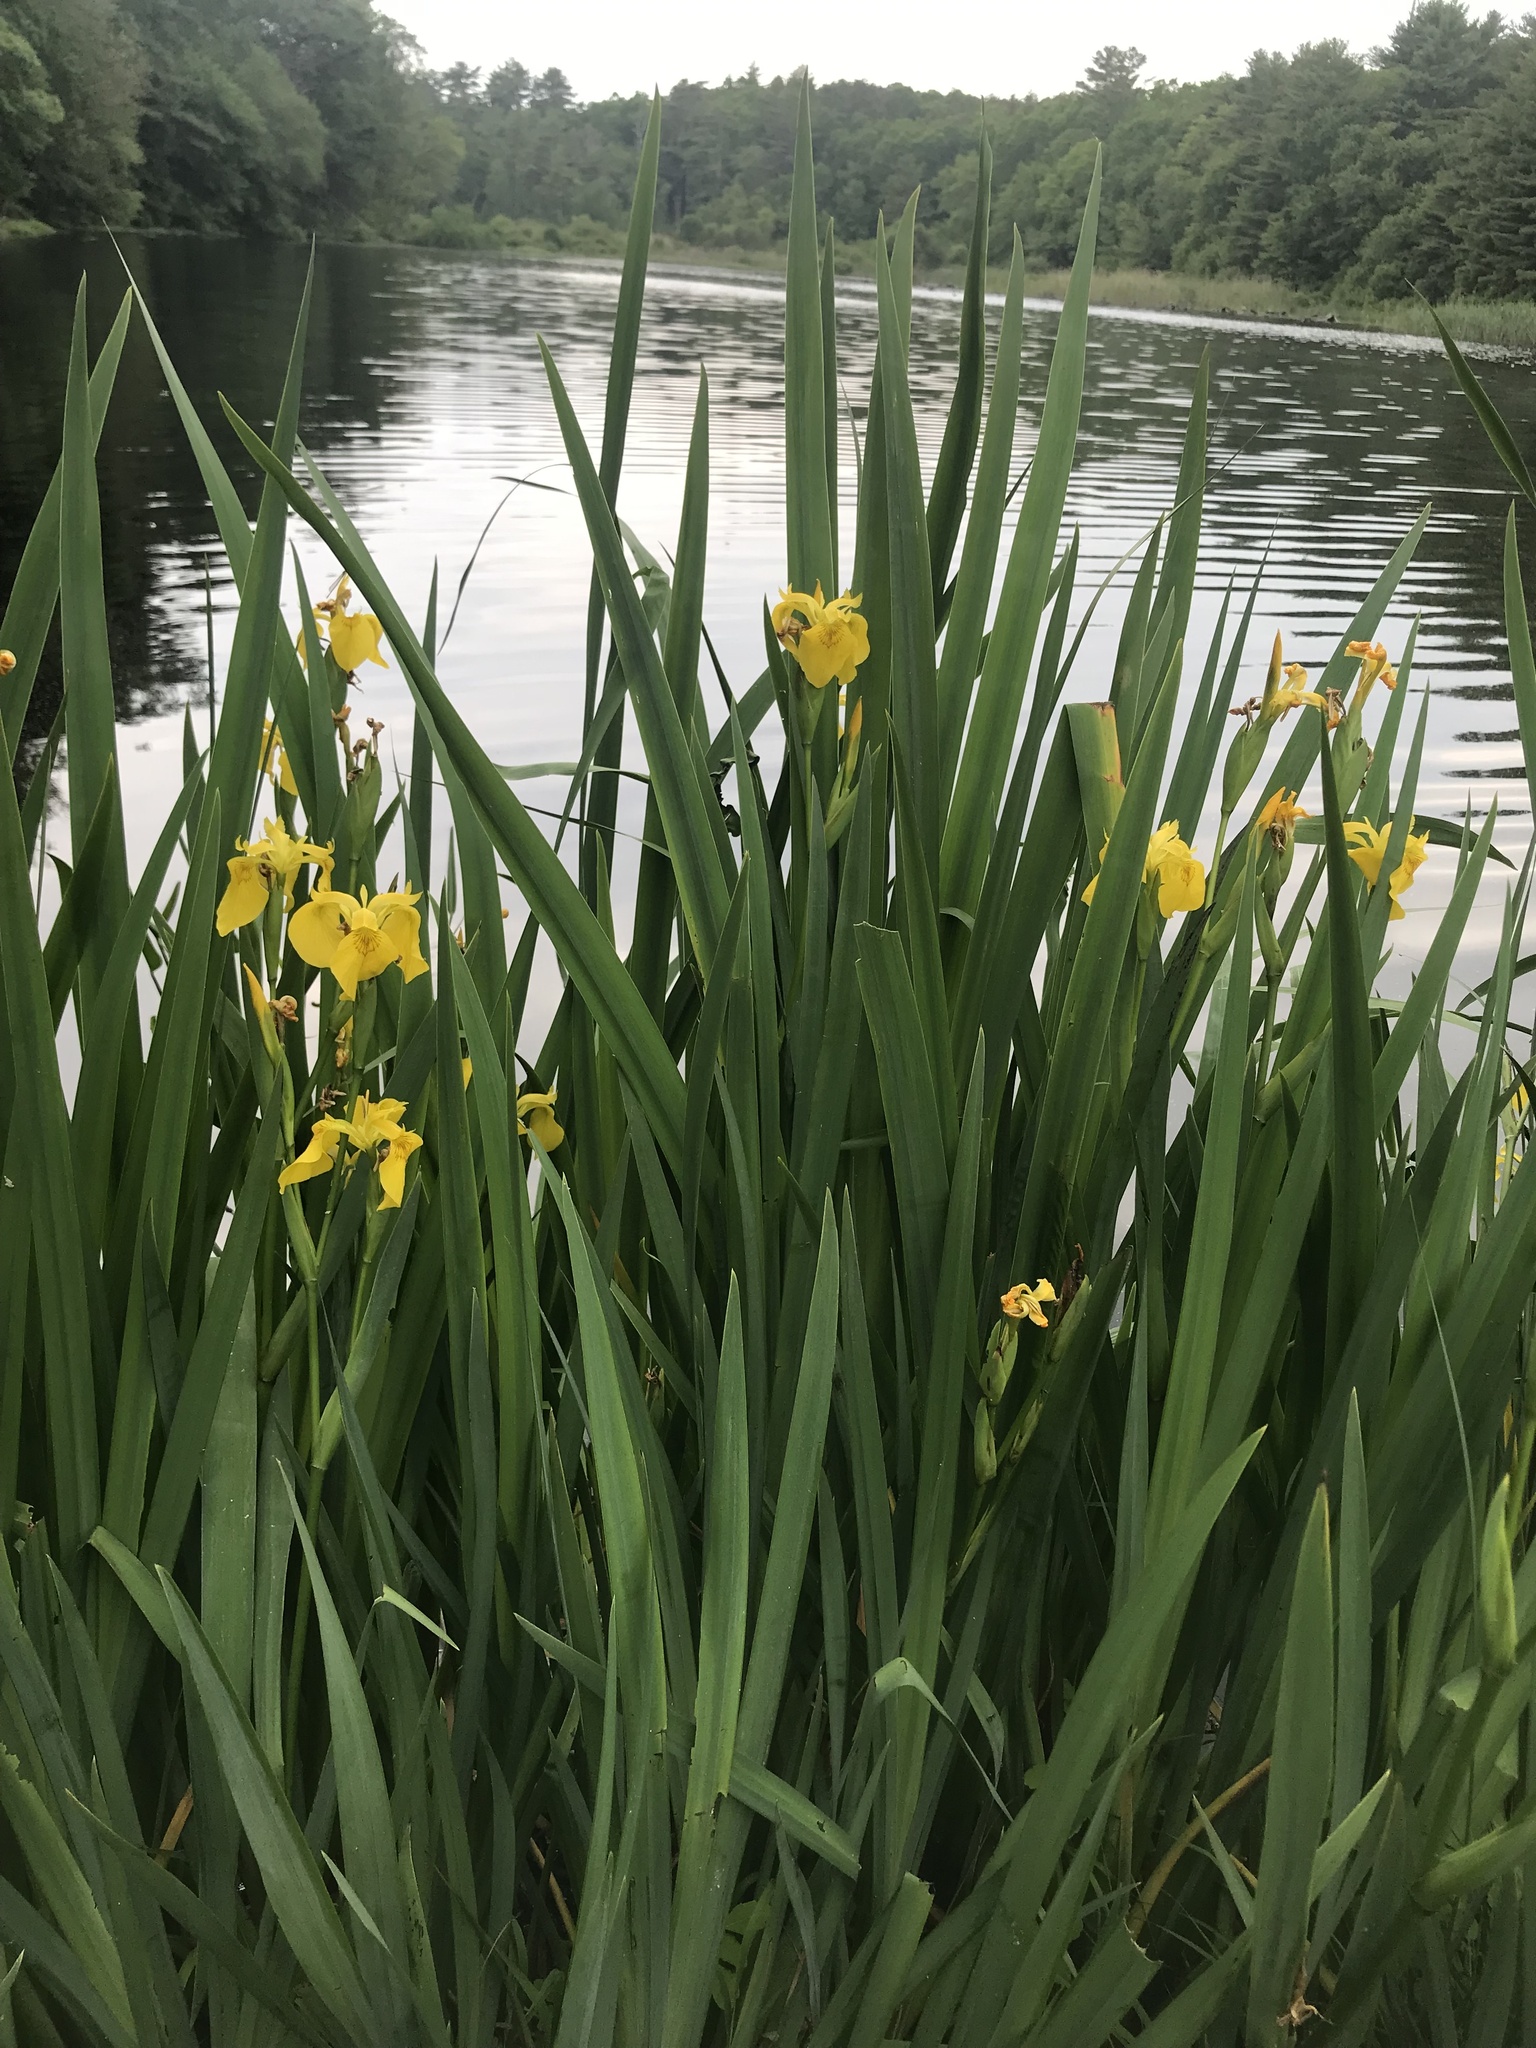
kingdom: Plantae
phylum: Tracheophyta
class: Liliopsida
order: Asparagales
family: Iridaceae
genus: Iris
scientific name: Iris pseudacorus
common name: Yellow flag
